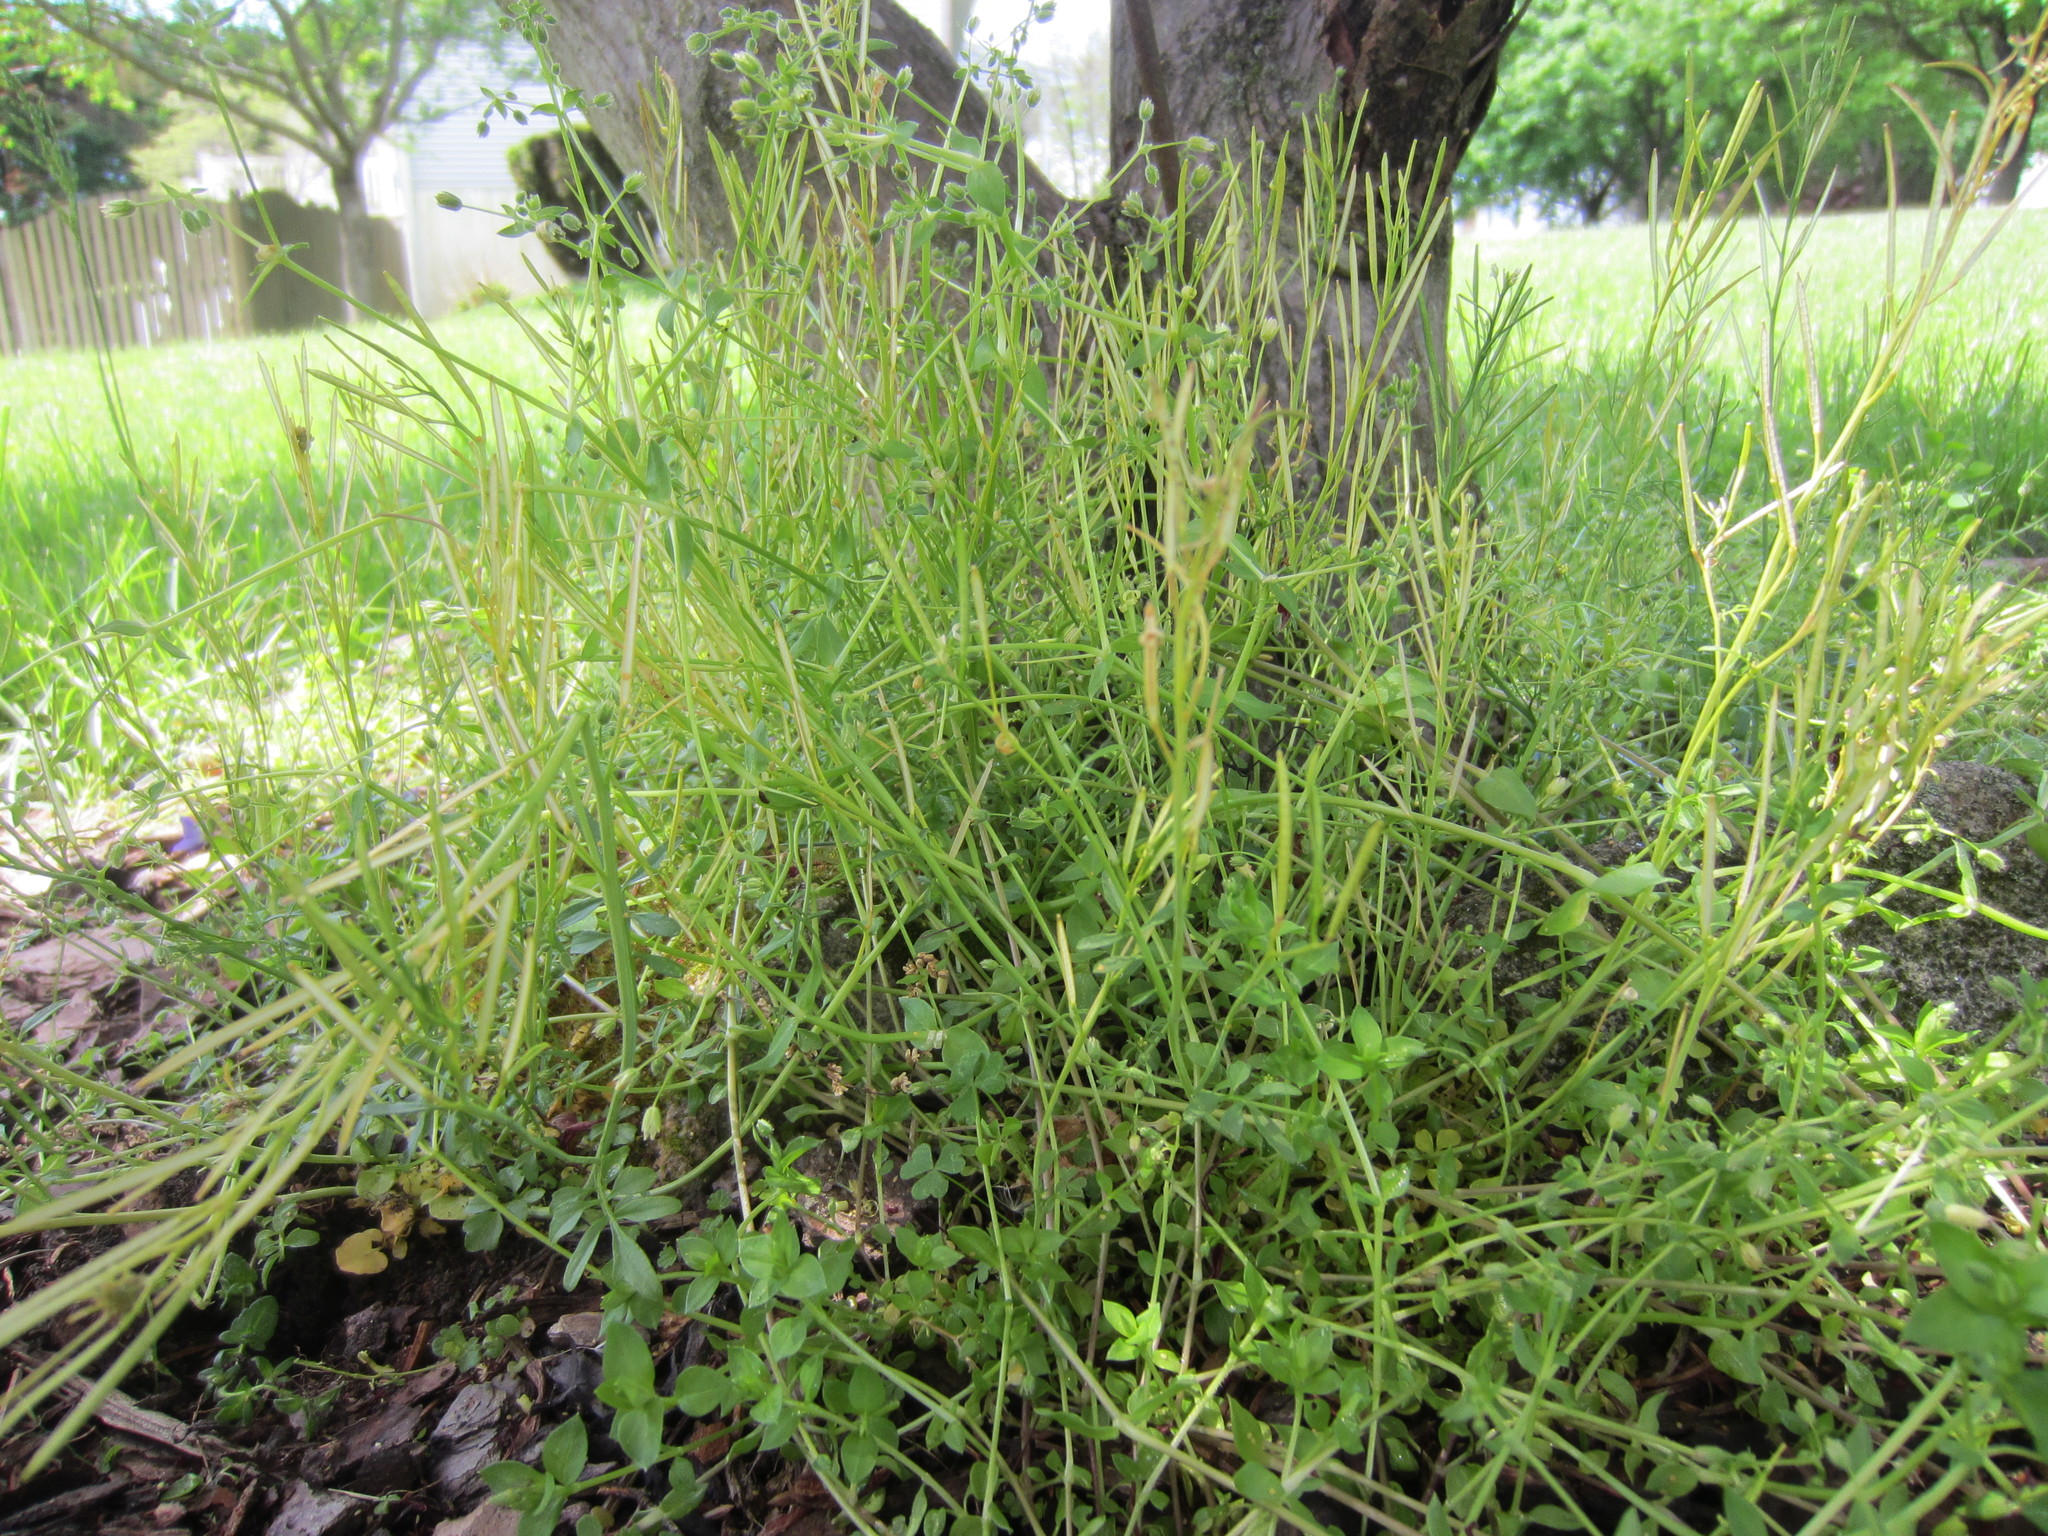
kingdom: Plantae
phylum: Tracheophyta
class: Magnoliopsida
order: Brassicales
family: Brassicaceae
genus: Cardamine
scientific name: Cardamine hirsuta
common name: Hairy bittercress
